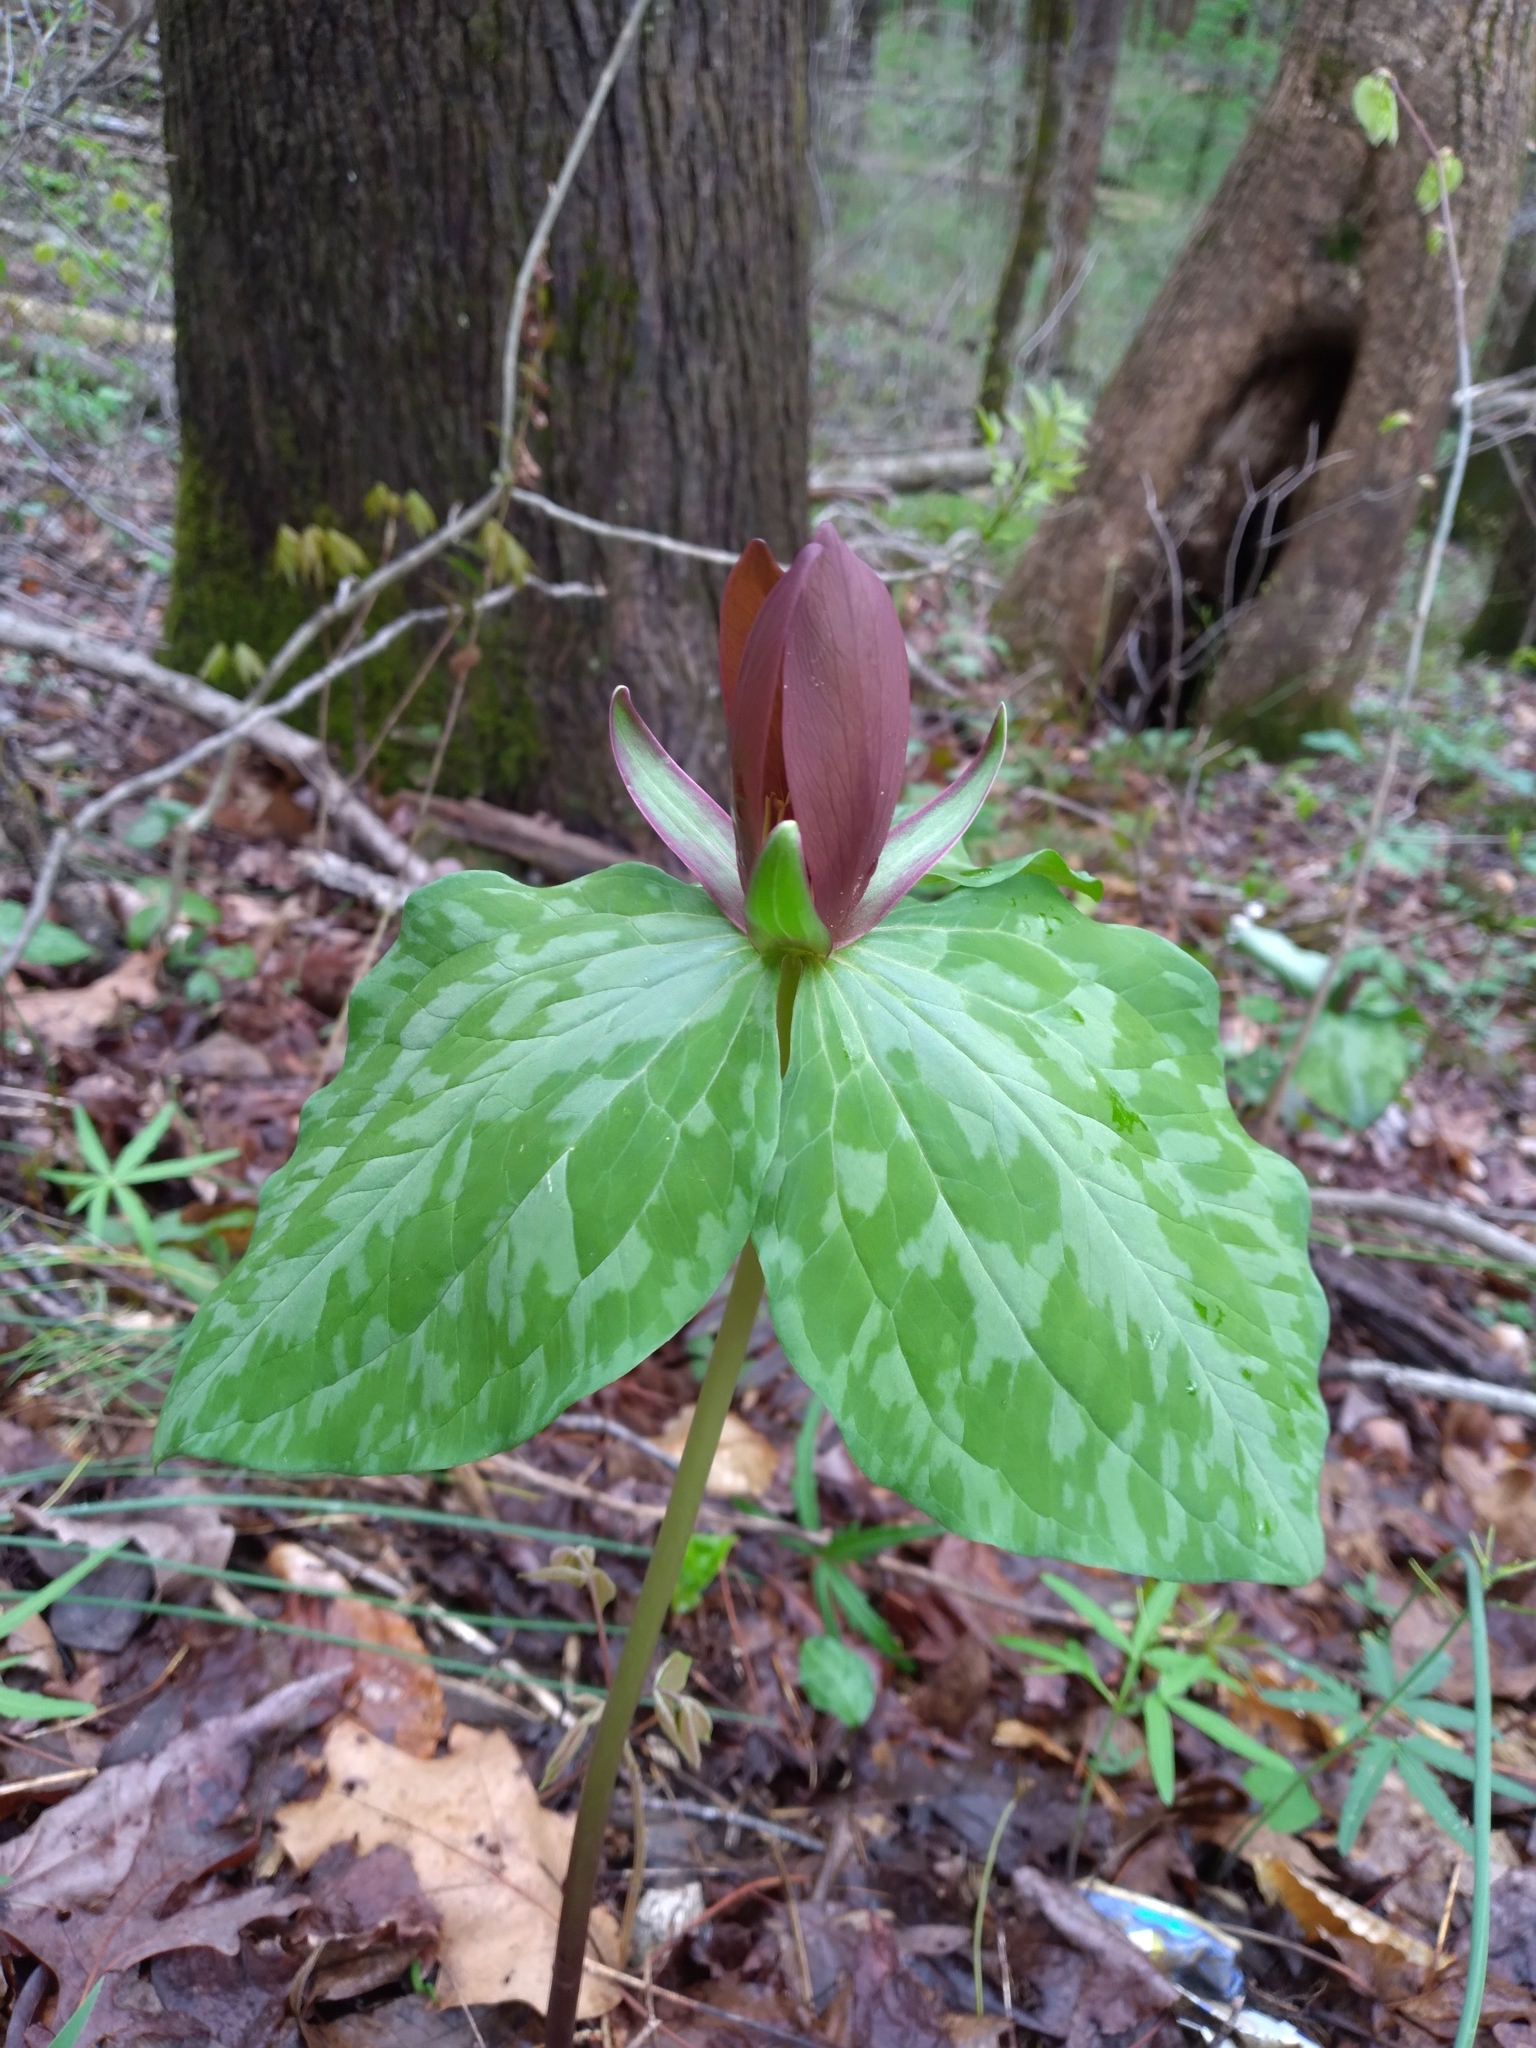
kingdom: Plantae
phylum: Tracheophyta
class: Liliopsida
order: Liliales
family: Melanthiaceae
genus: Trillium
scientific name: Trillium cuneatum
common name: Cuneate trillium
